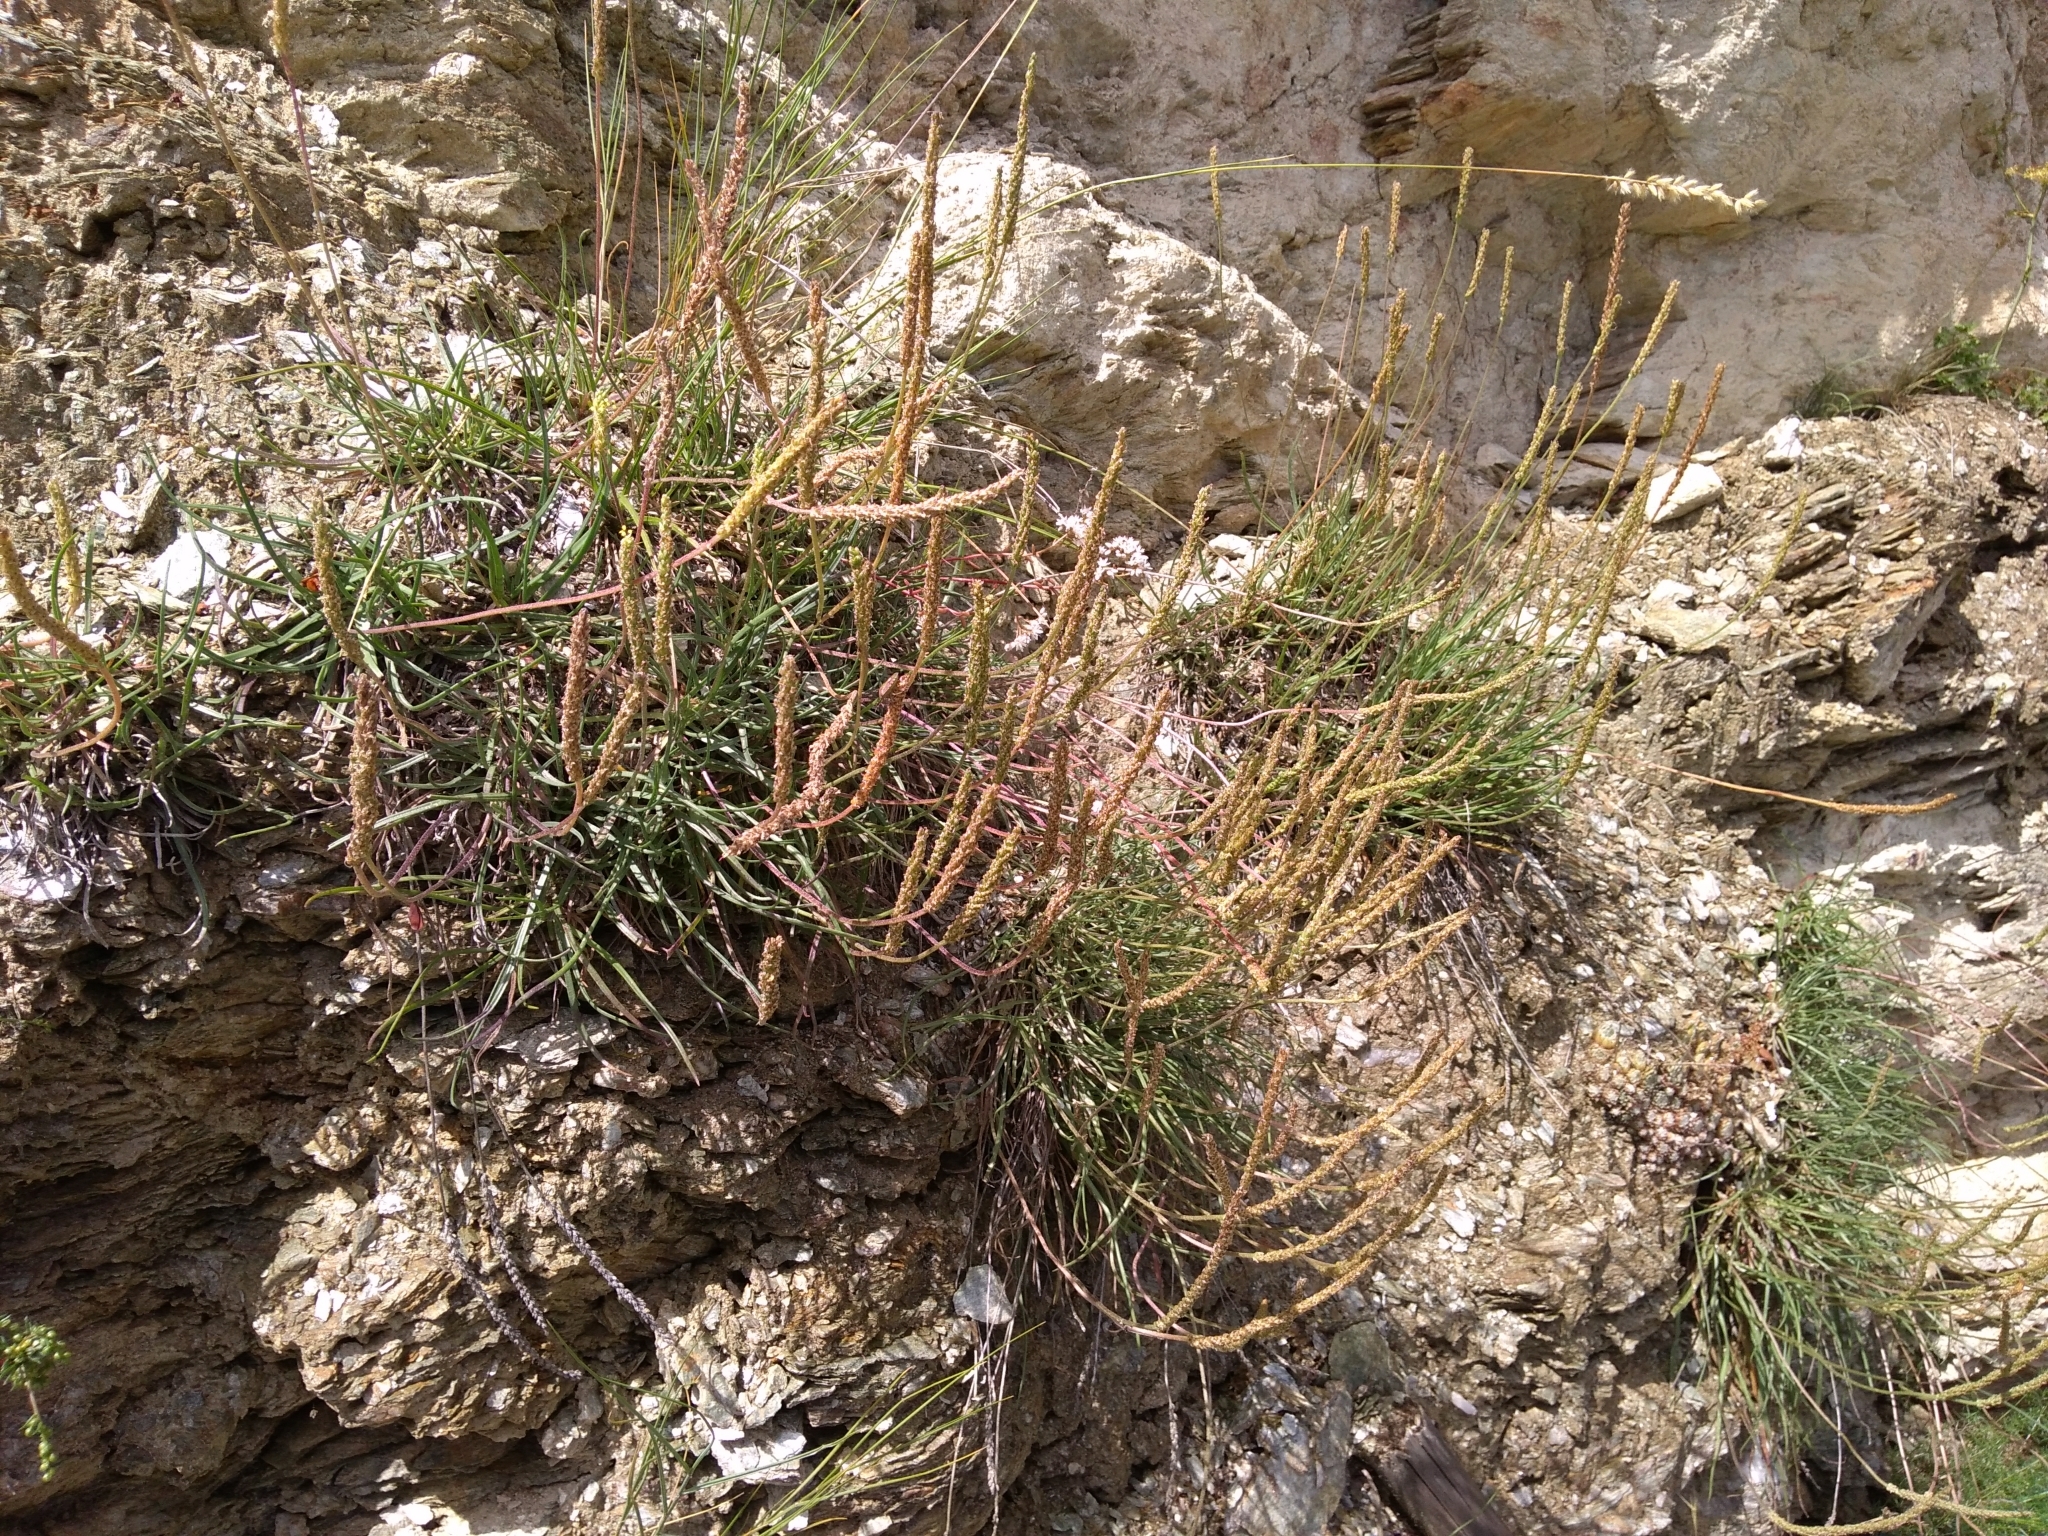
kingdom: Plantae
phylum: Tracheophyta
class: Magnoliopsida
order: Lamiales
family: Plantaginaceae
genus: Plantago
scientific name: Plantago
